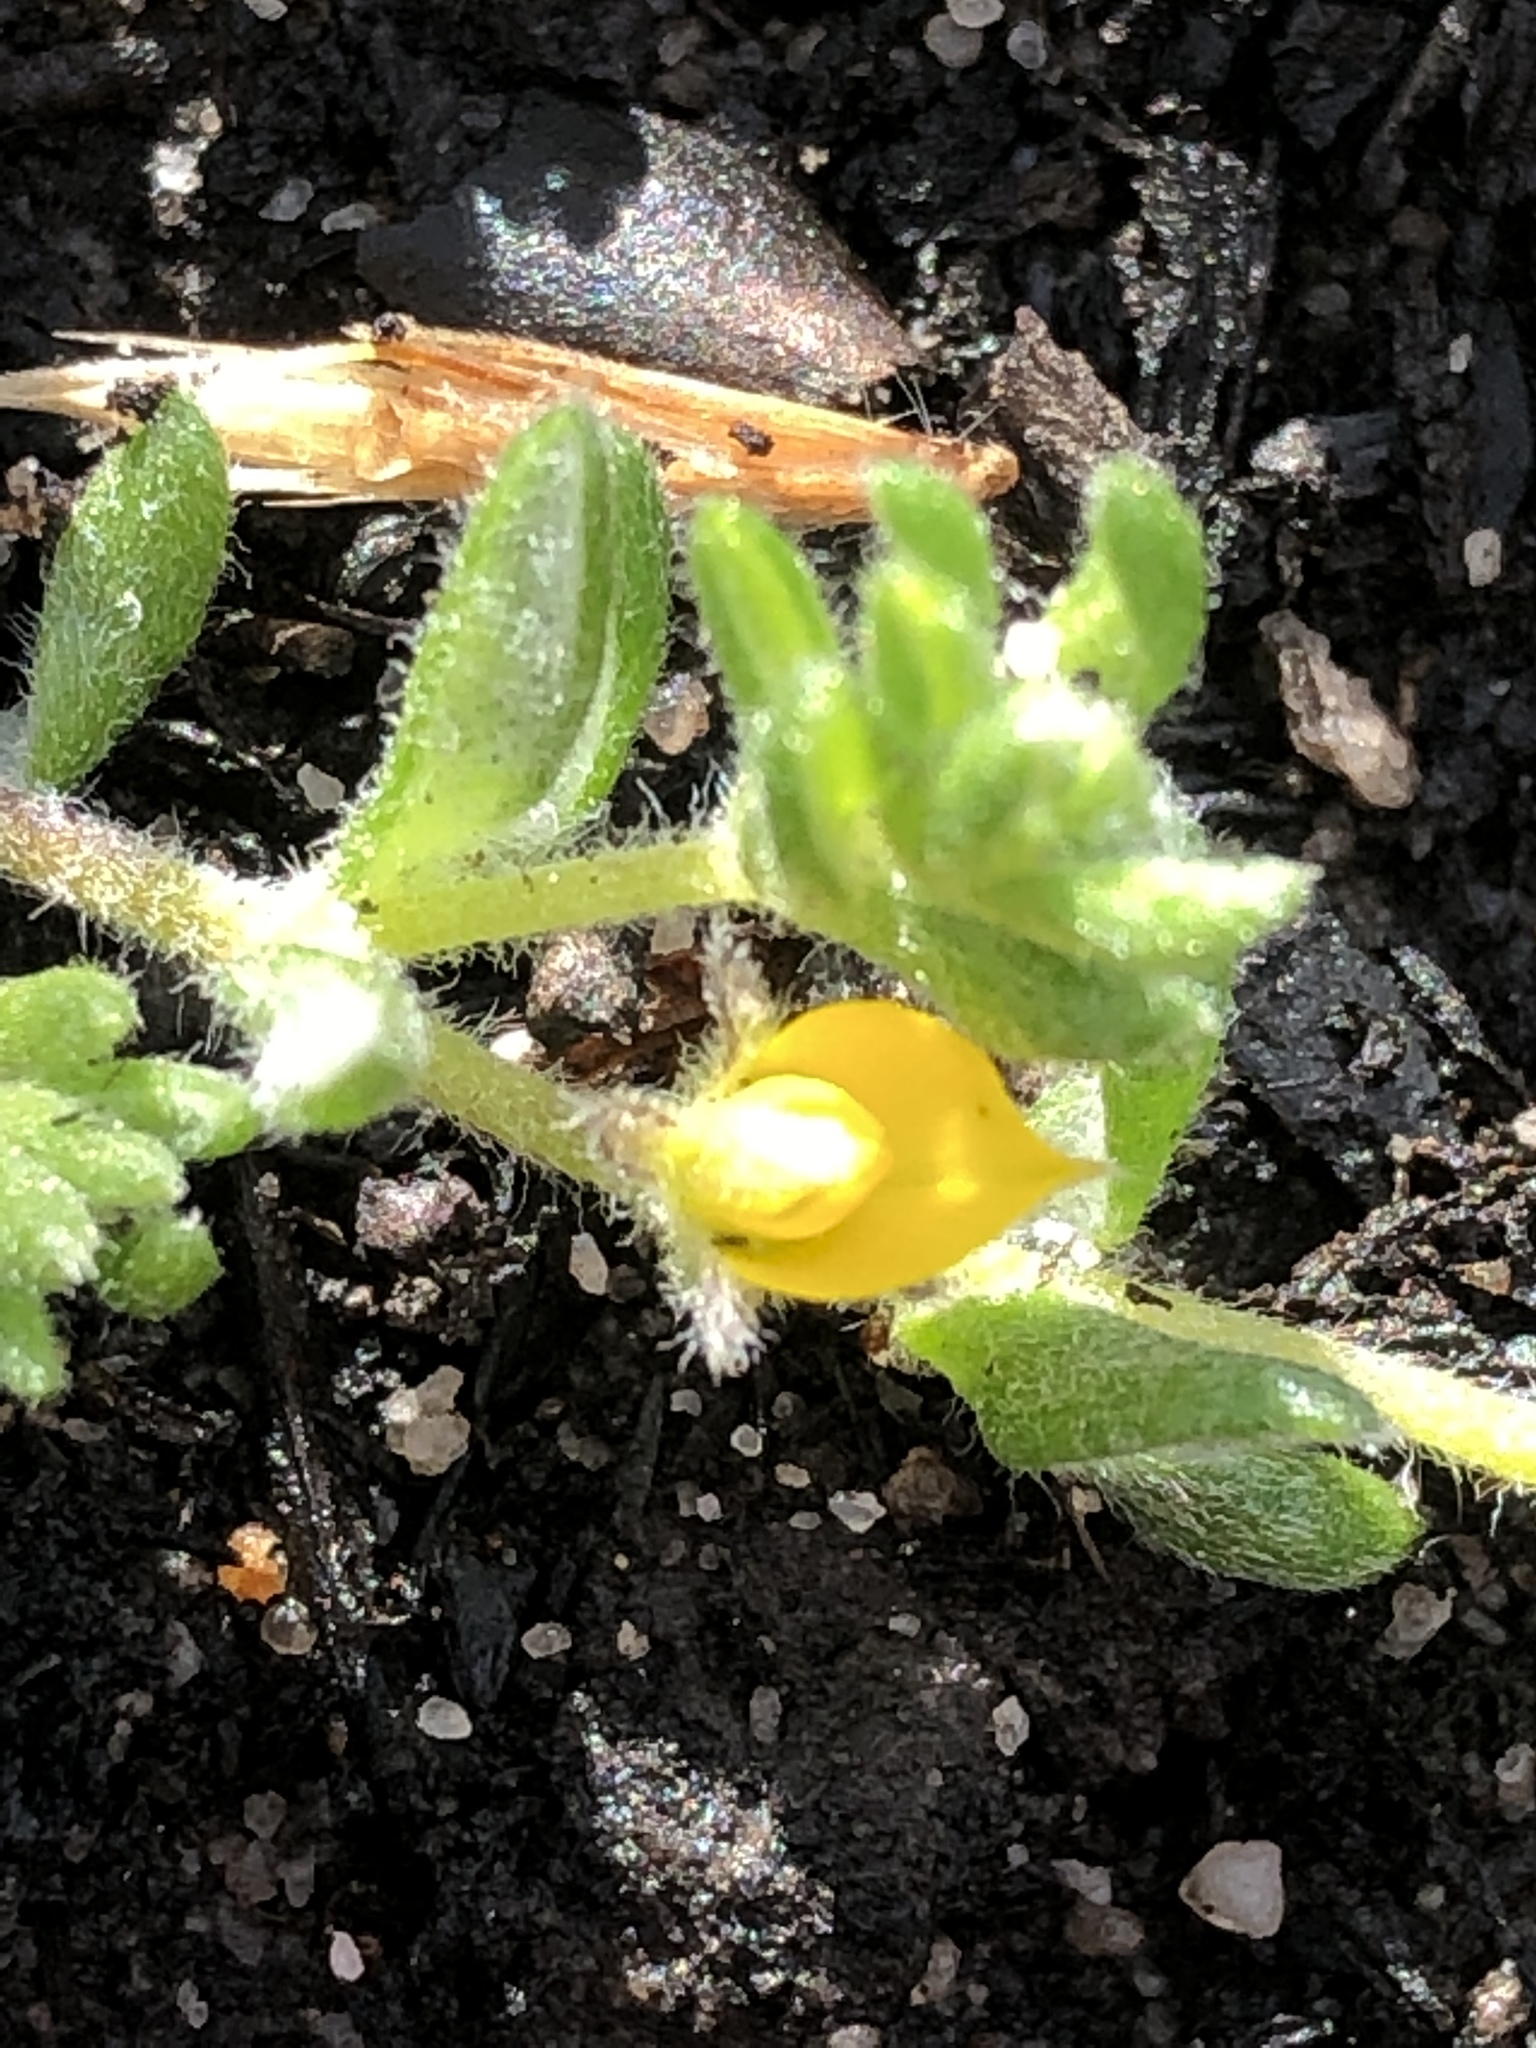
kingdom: Plantae
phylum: Tracheophyta
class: Magnoliopsida
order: Fabales
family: Fabaceae
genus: Aspalathus
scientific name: Aspalathus diffusa
